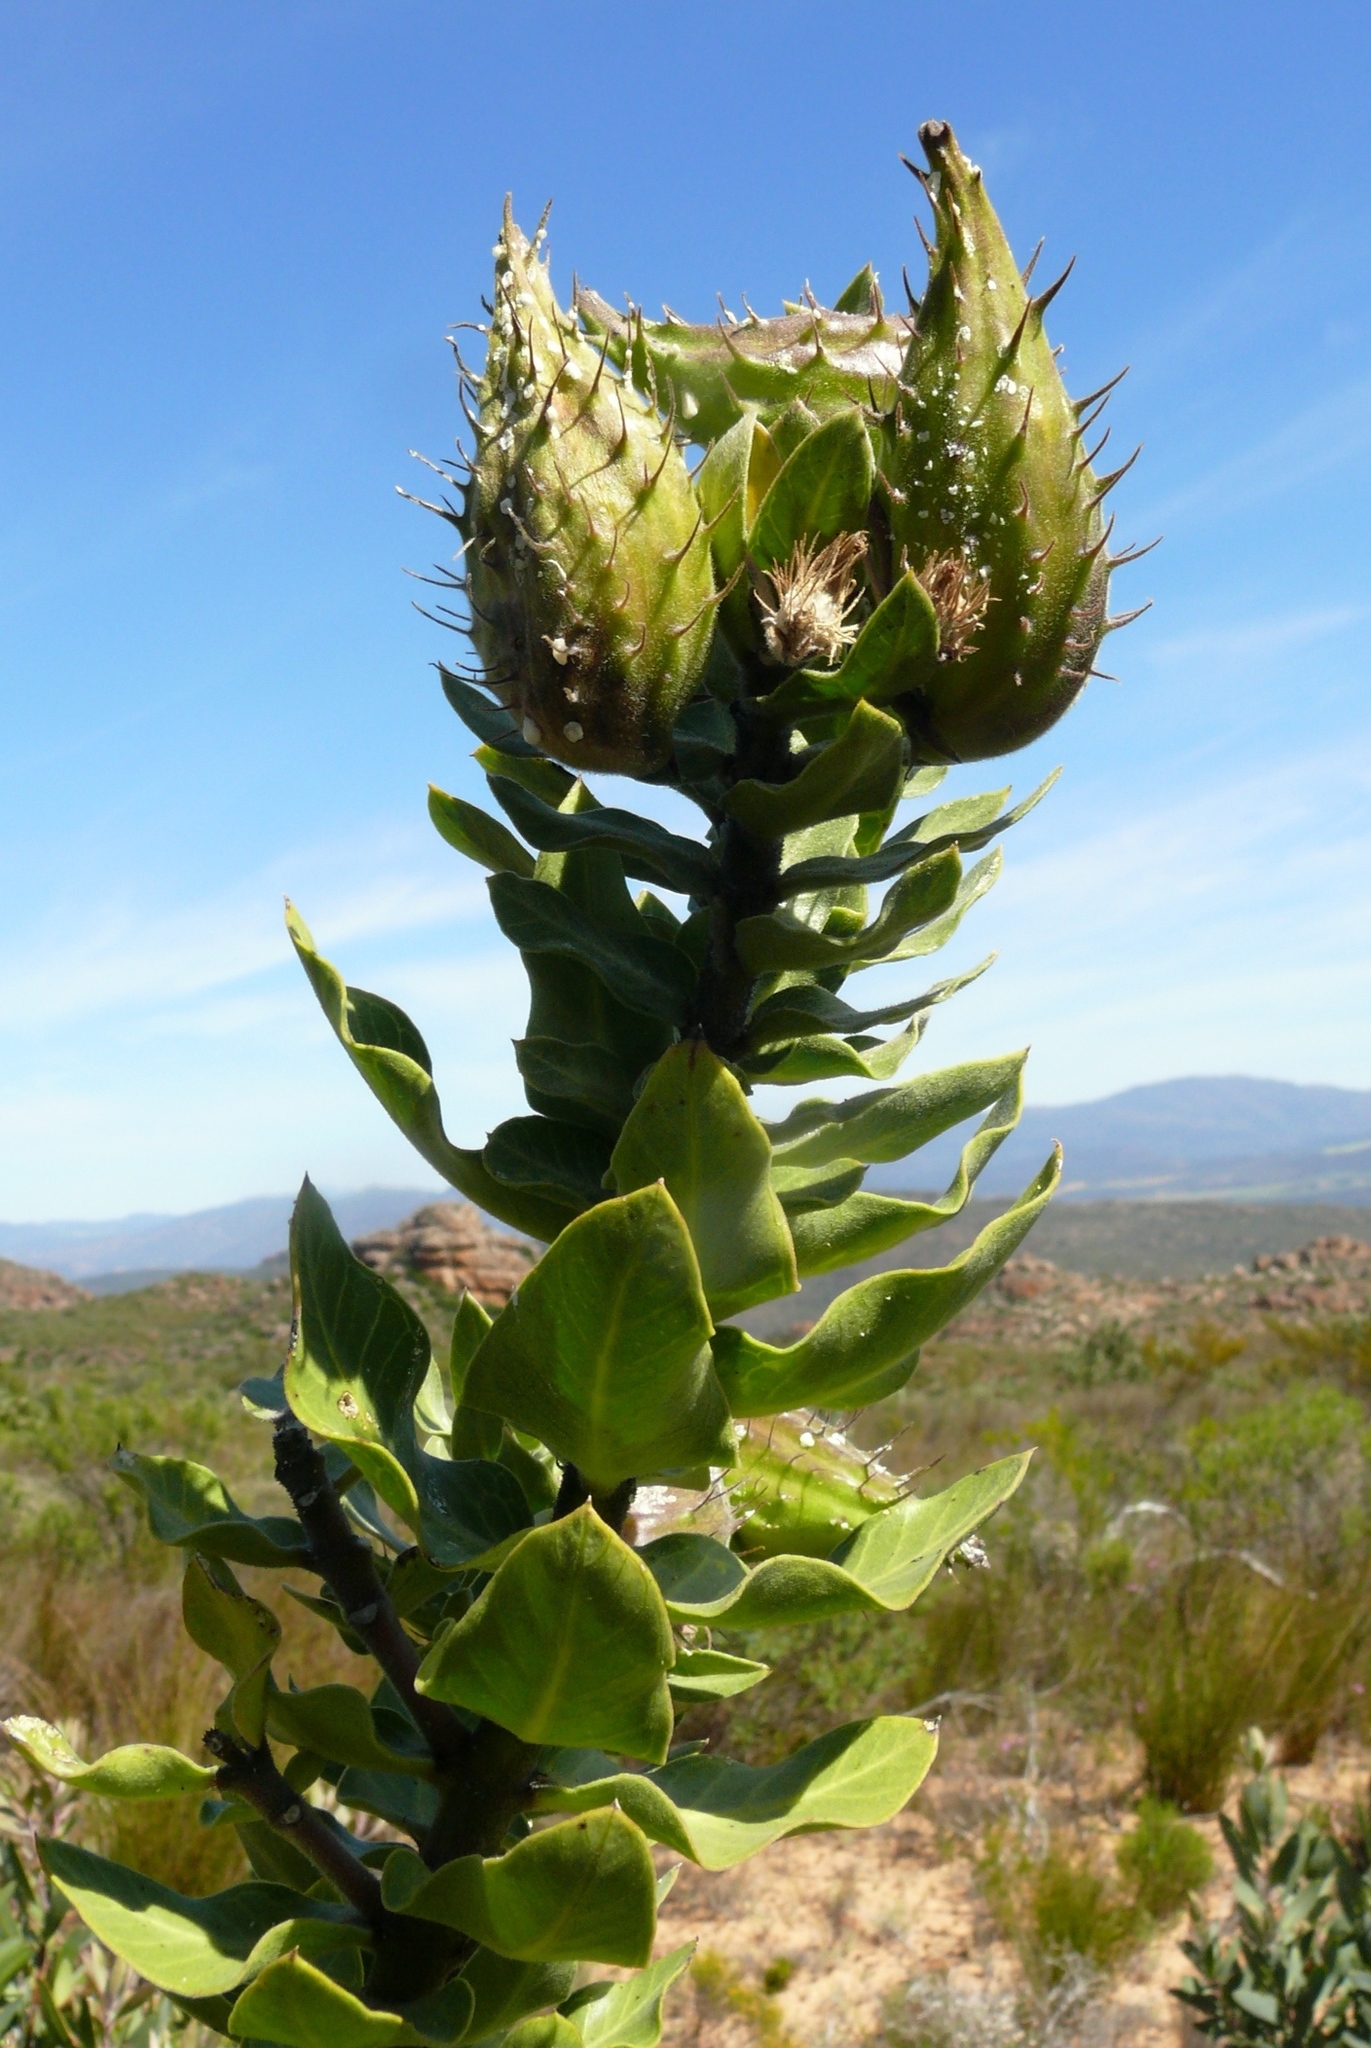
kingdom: Plantae
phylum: Tracheophyta
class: Magnoliopsida
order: Gentianales
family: Apocynaceae
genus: Gomphocarpus
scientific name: Gomphocarpus cancellatus
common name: Wild cotton
